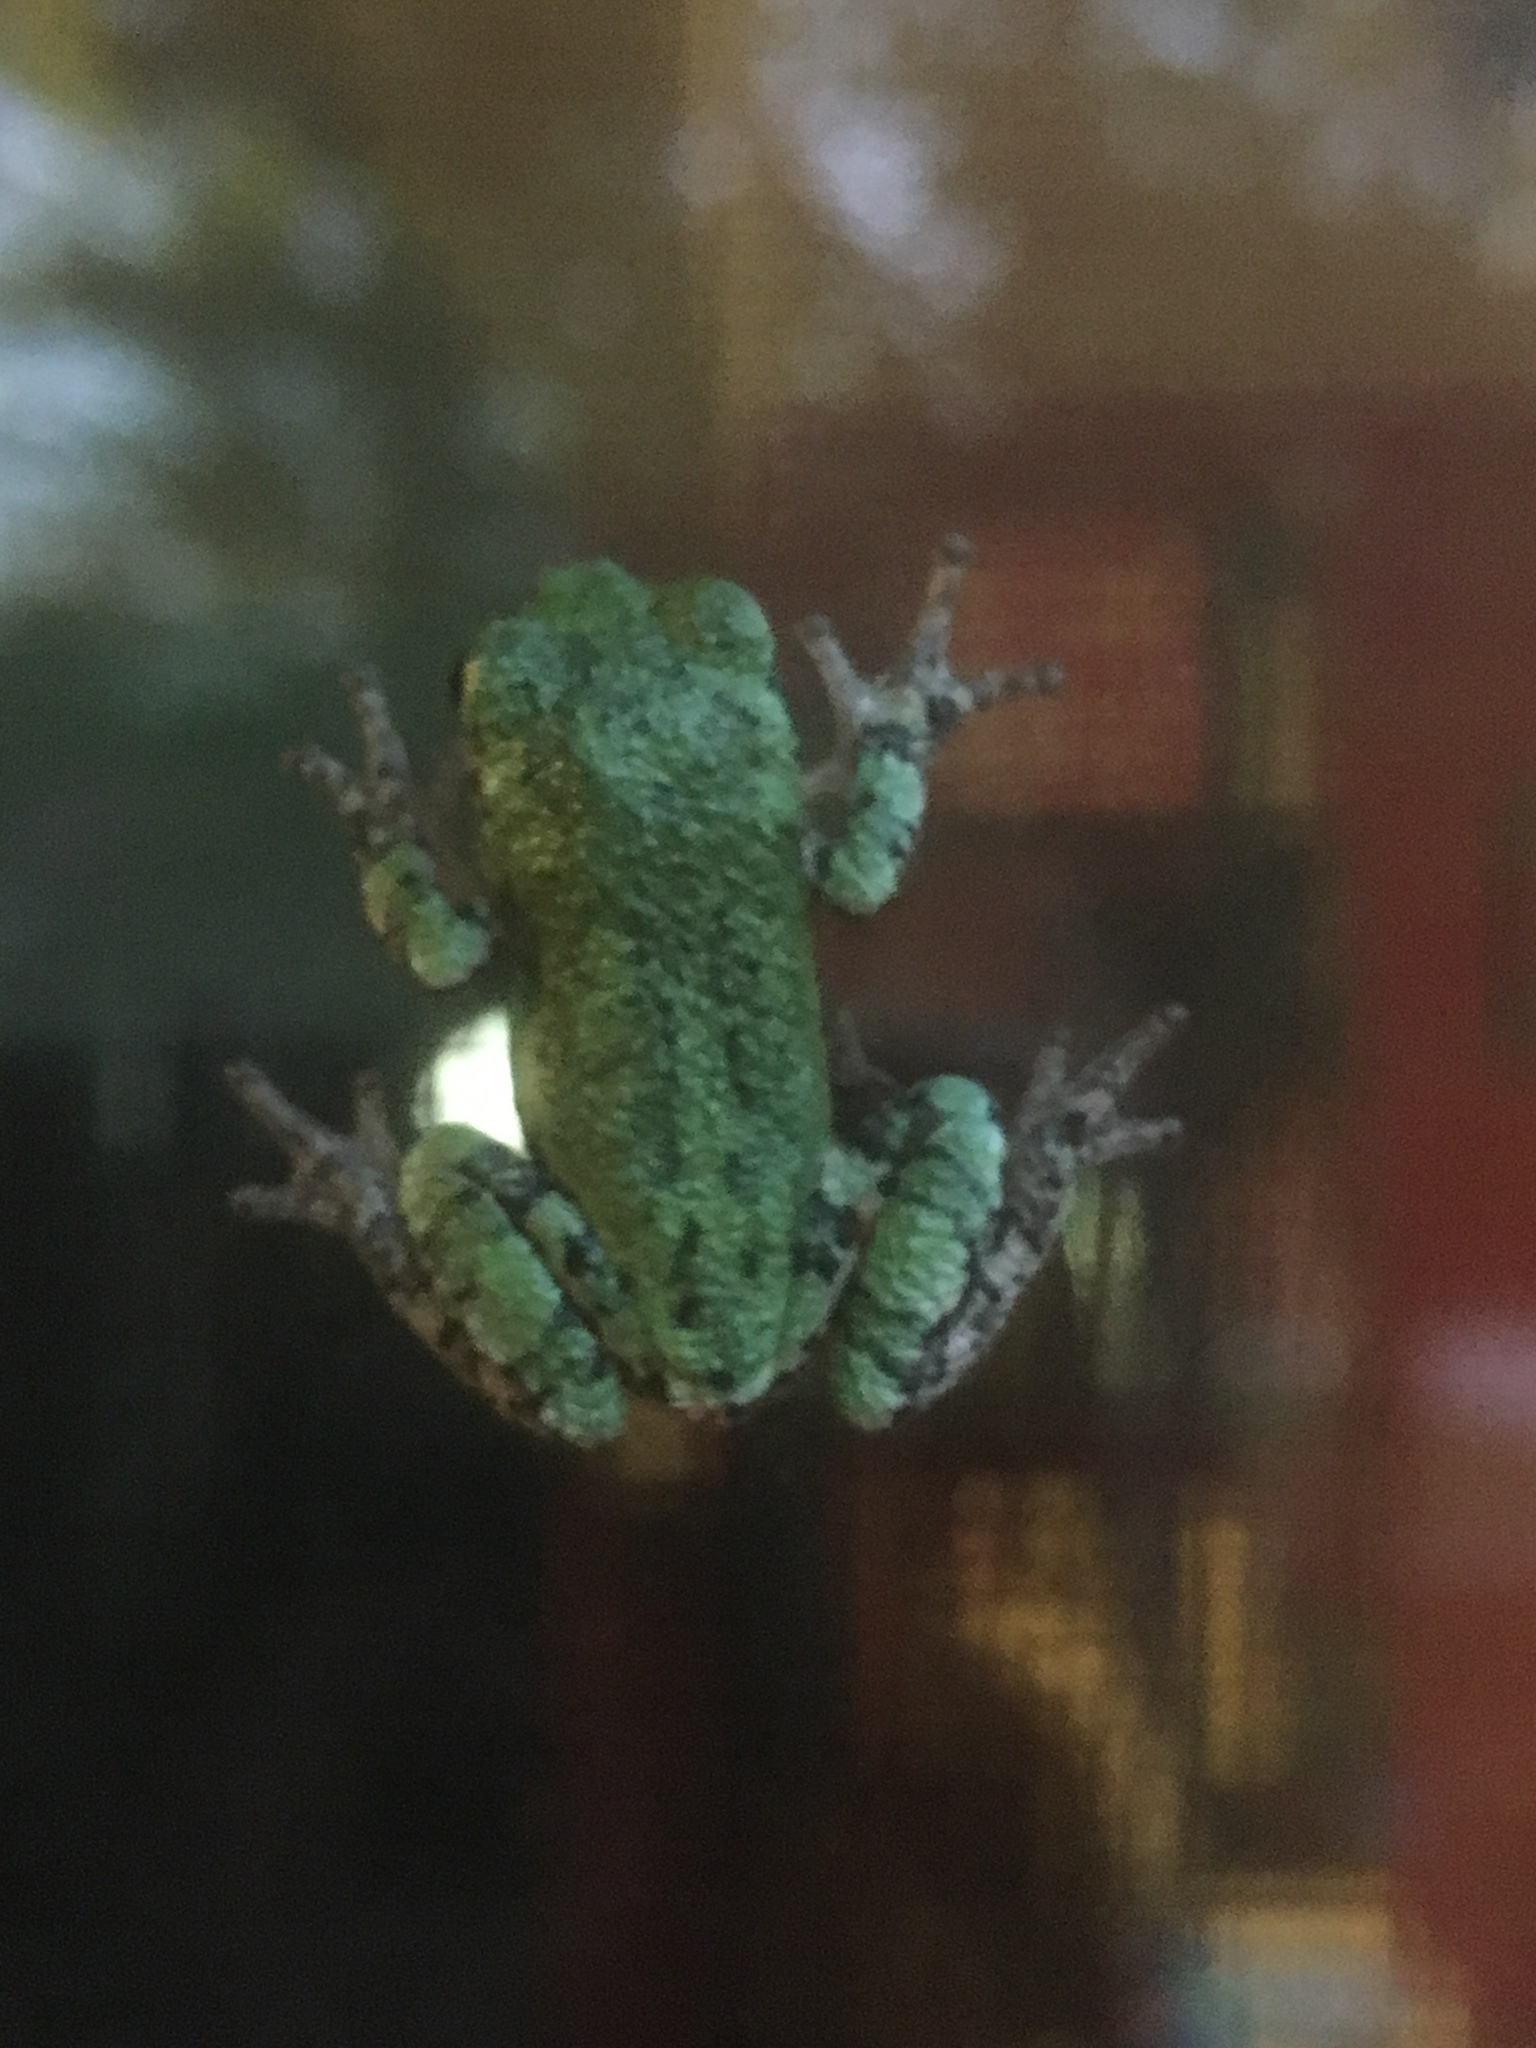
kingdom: Animalia
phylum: Chordata
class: Amphibia
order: Anura
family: Hylidae
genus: Hyla
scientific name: Hyla
